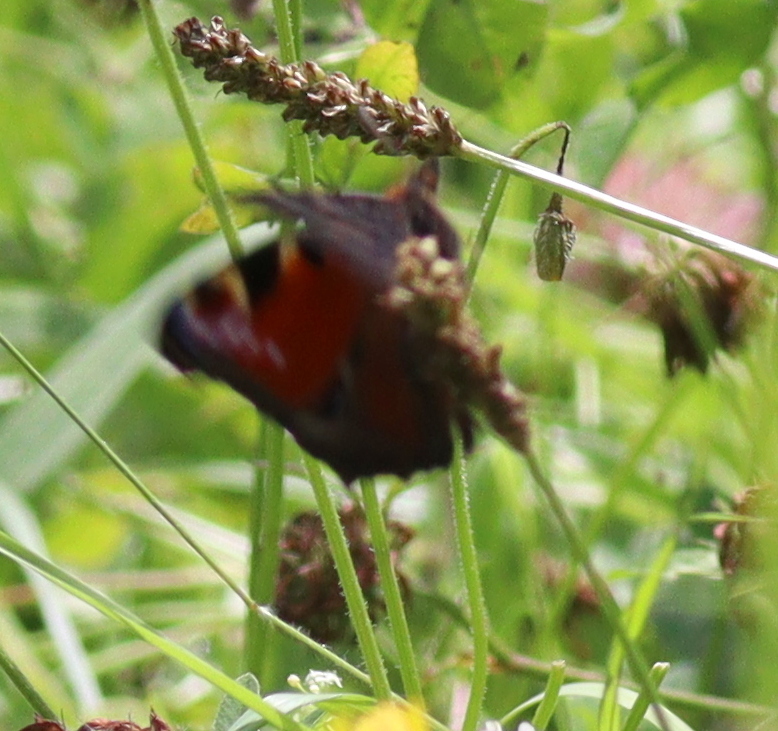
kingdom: Animalia
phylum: Arthropoda
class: Insecta
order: Lepidoptera
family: Nymphalidae
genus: Aglais
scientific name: Aglais io
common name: Peacock
